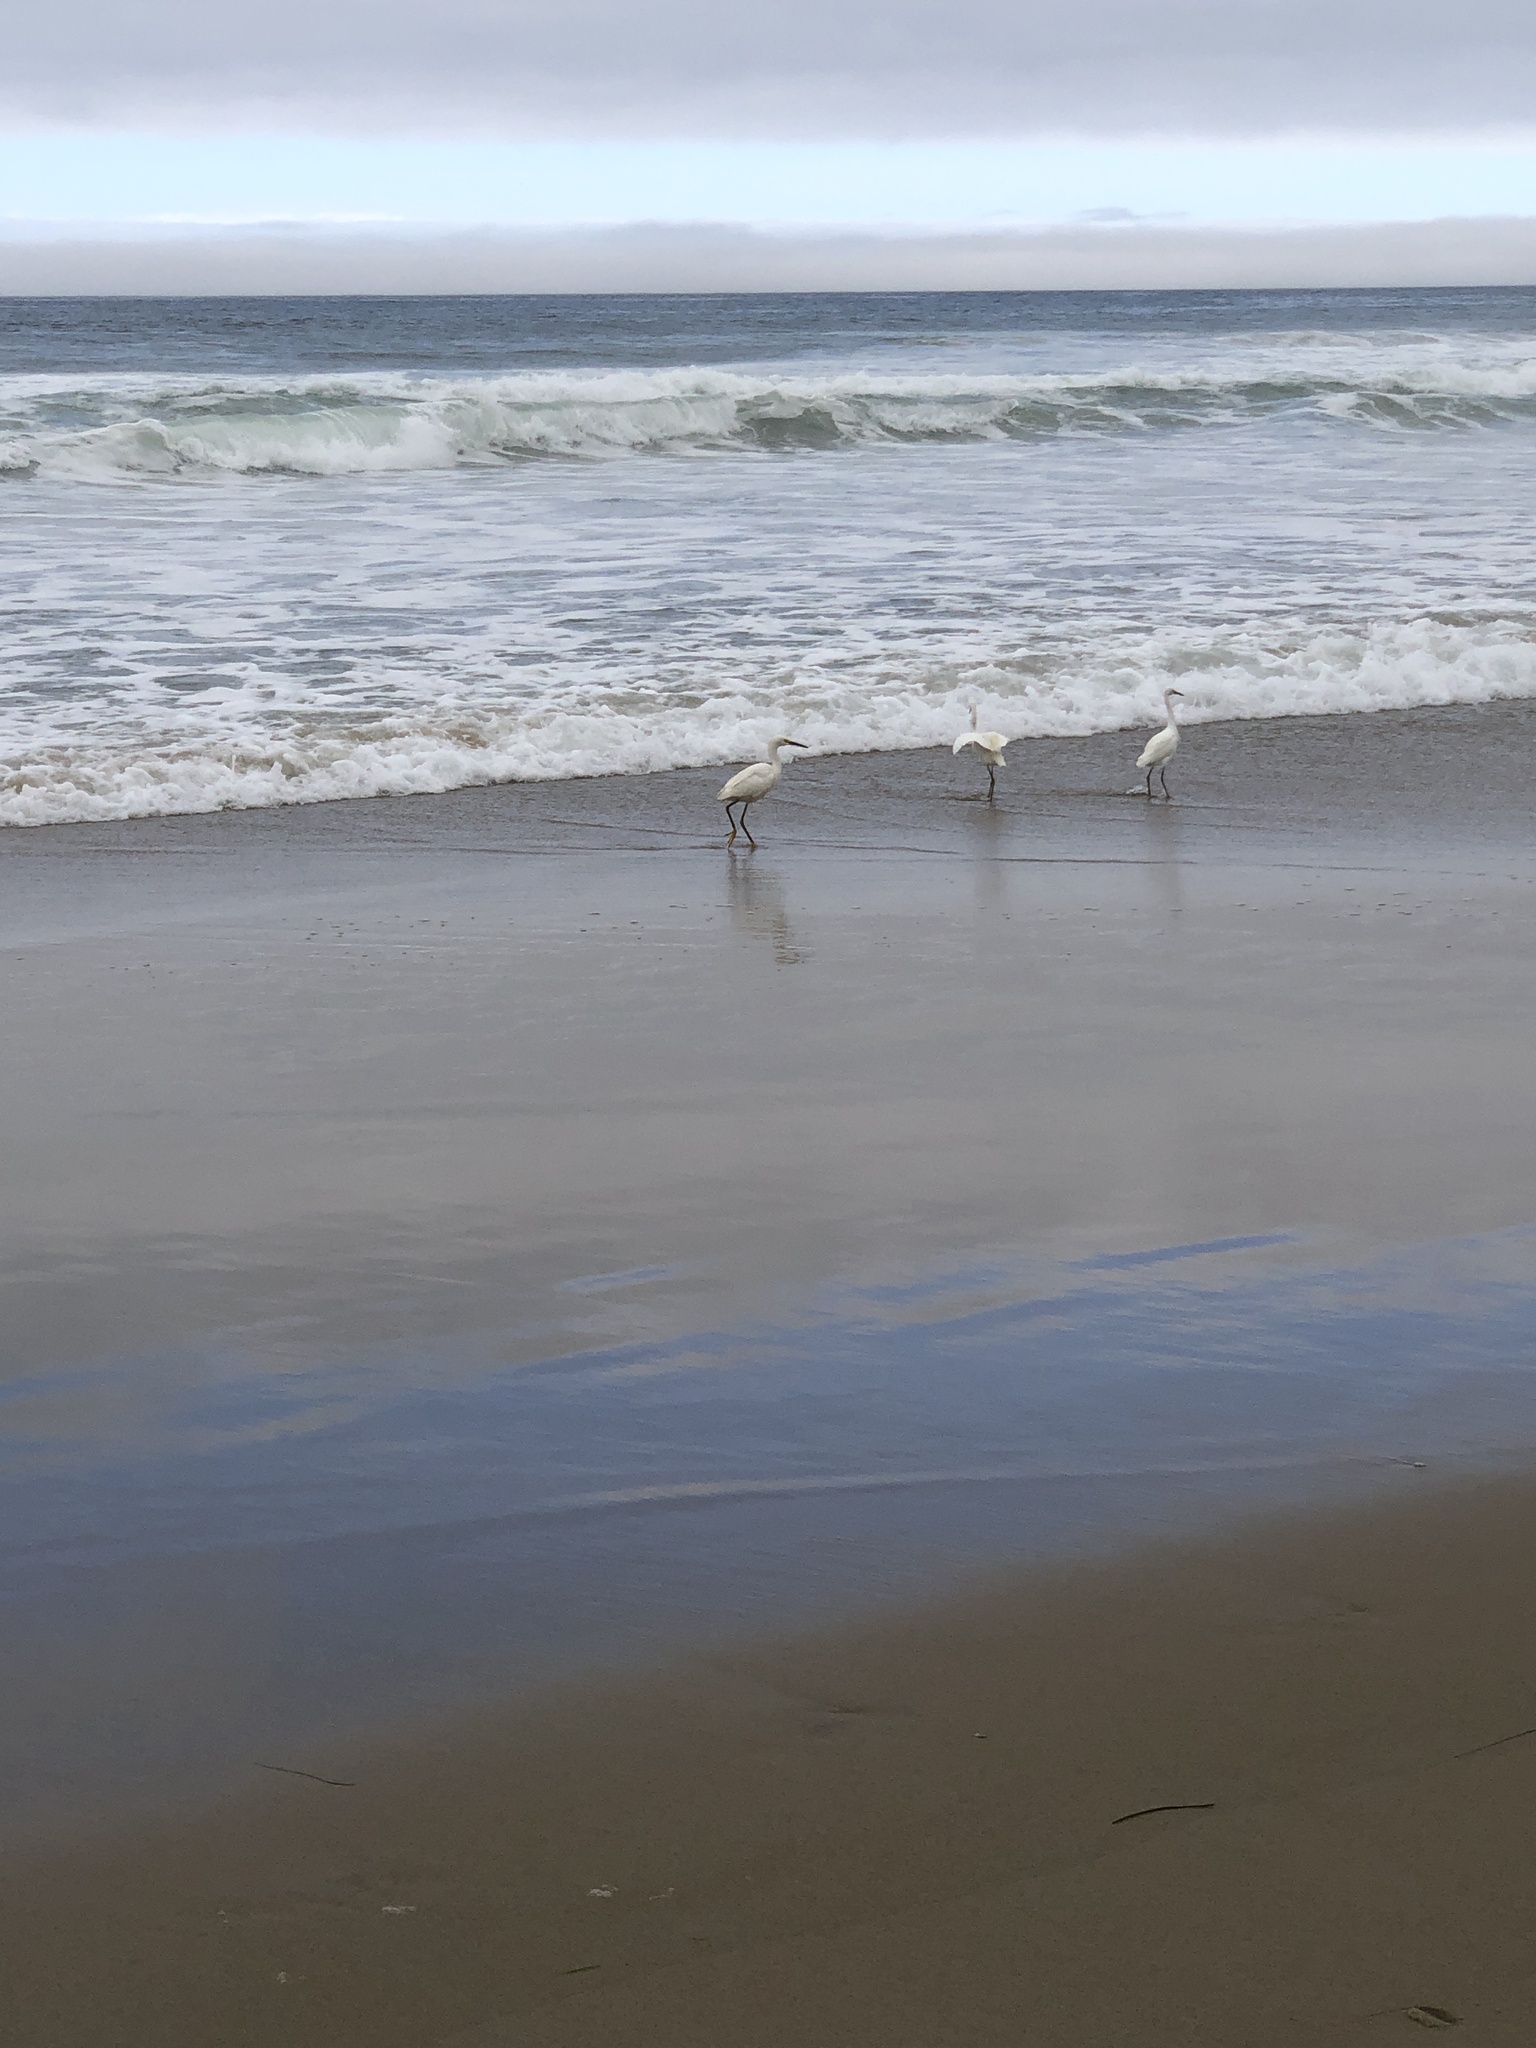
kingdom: Animalia
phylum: Chordata
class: Aves
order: Pelecaniformes
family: Ardeidae
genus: Egretta
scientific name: Egretta thula
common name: Snowy egret
